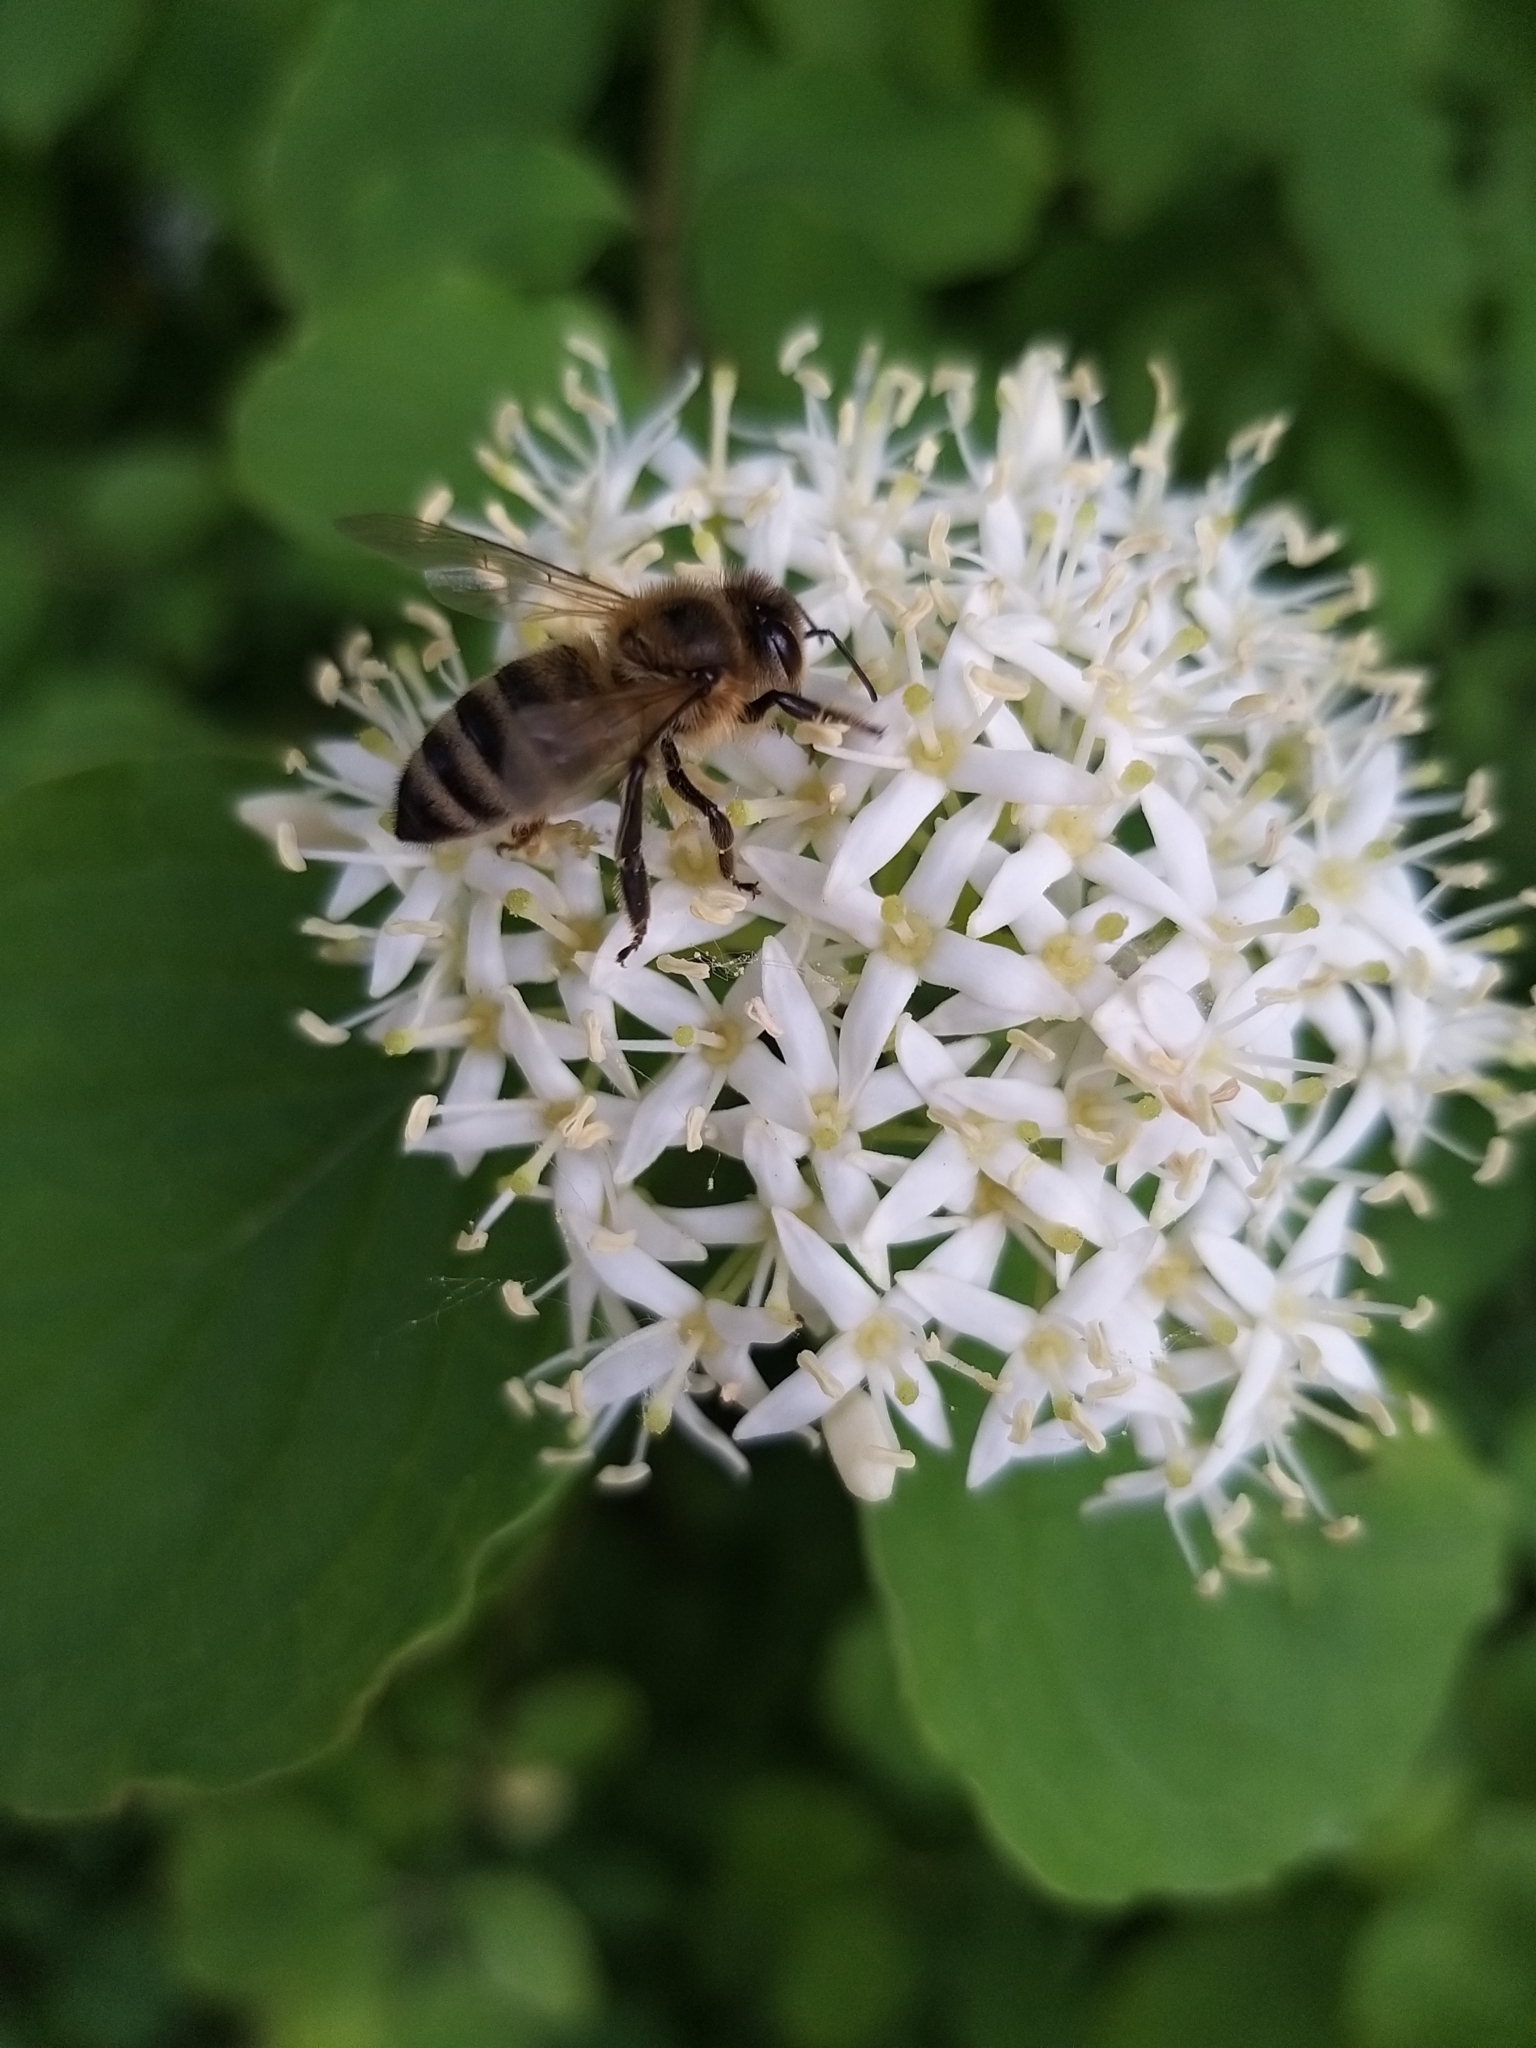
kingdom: Plantae
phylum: Tracheophyta
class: Magnoliopsida
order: Cornales
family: Cornaceae
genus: Cornus
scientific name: Cornus sanguinea
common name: Dogwood
